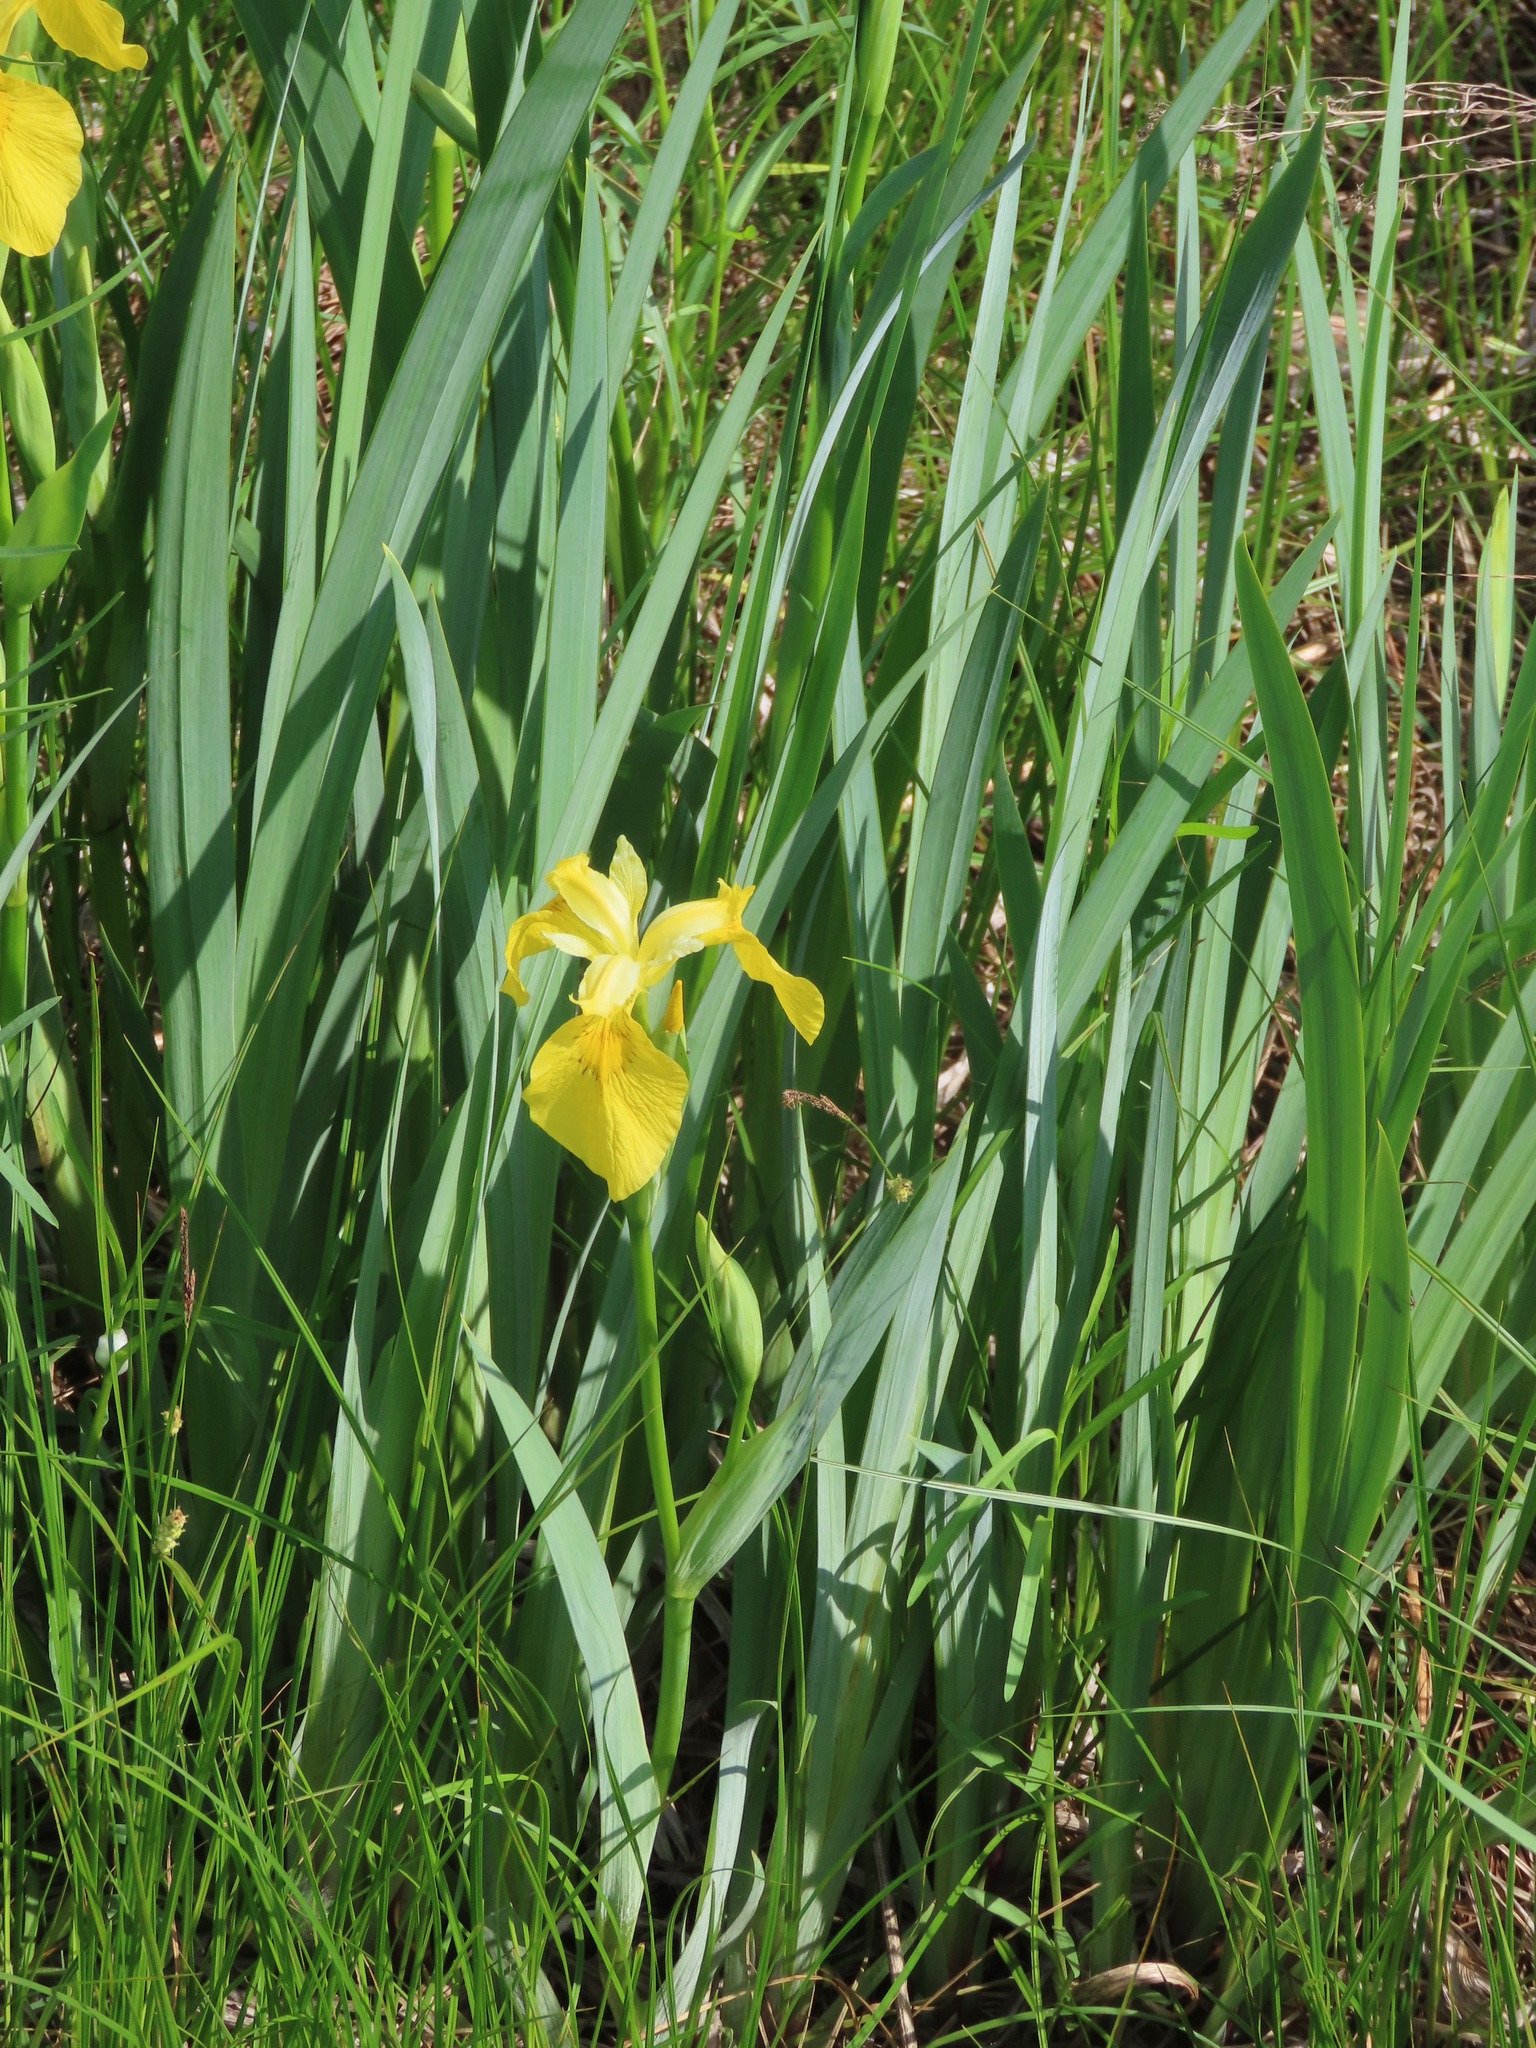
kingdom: Plantae
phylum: Tracheophyta
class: Liliopsida
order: Asparagales
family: Iridaceae
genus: Iris
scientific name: Iris pseudacorus
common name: Yellow flag
